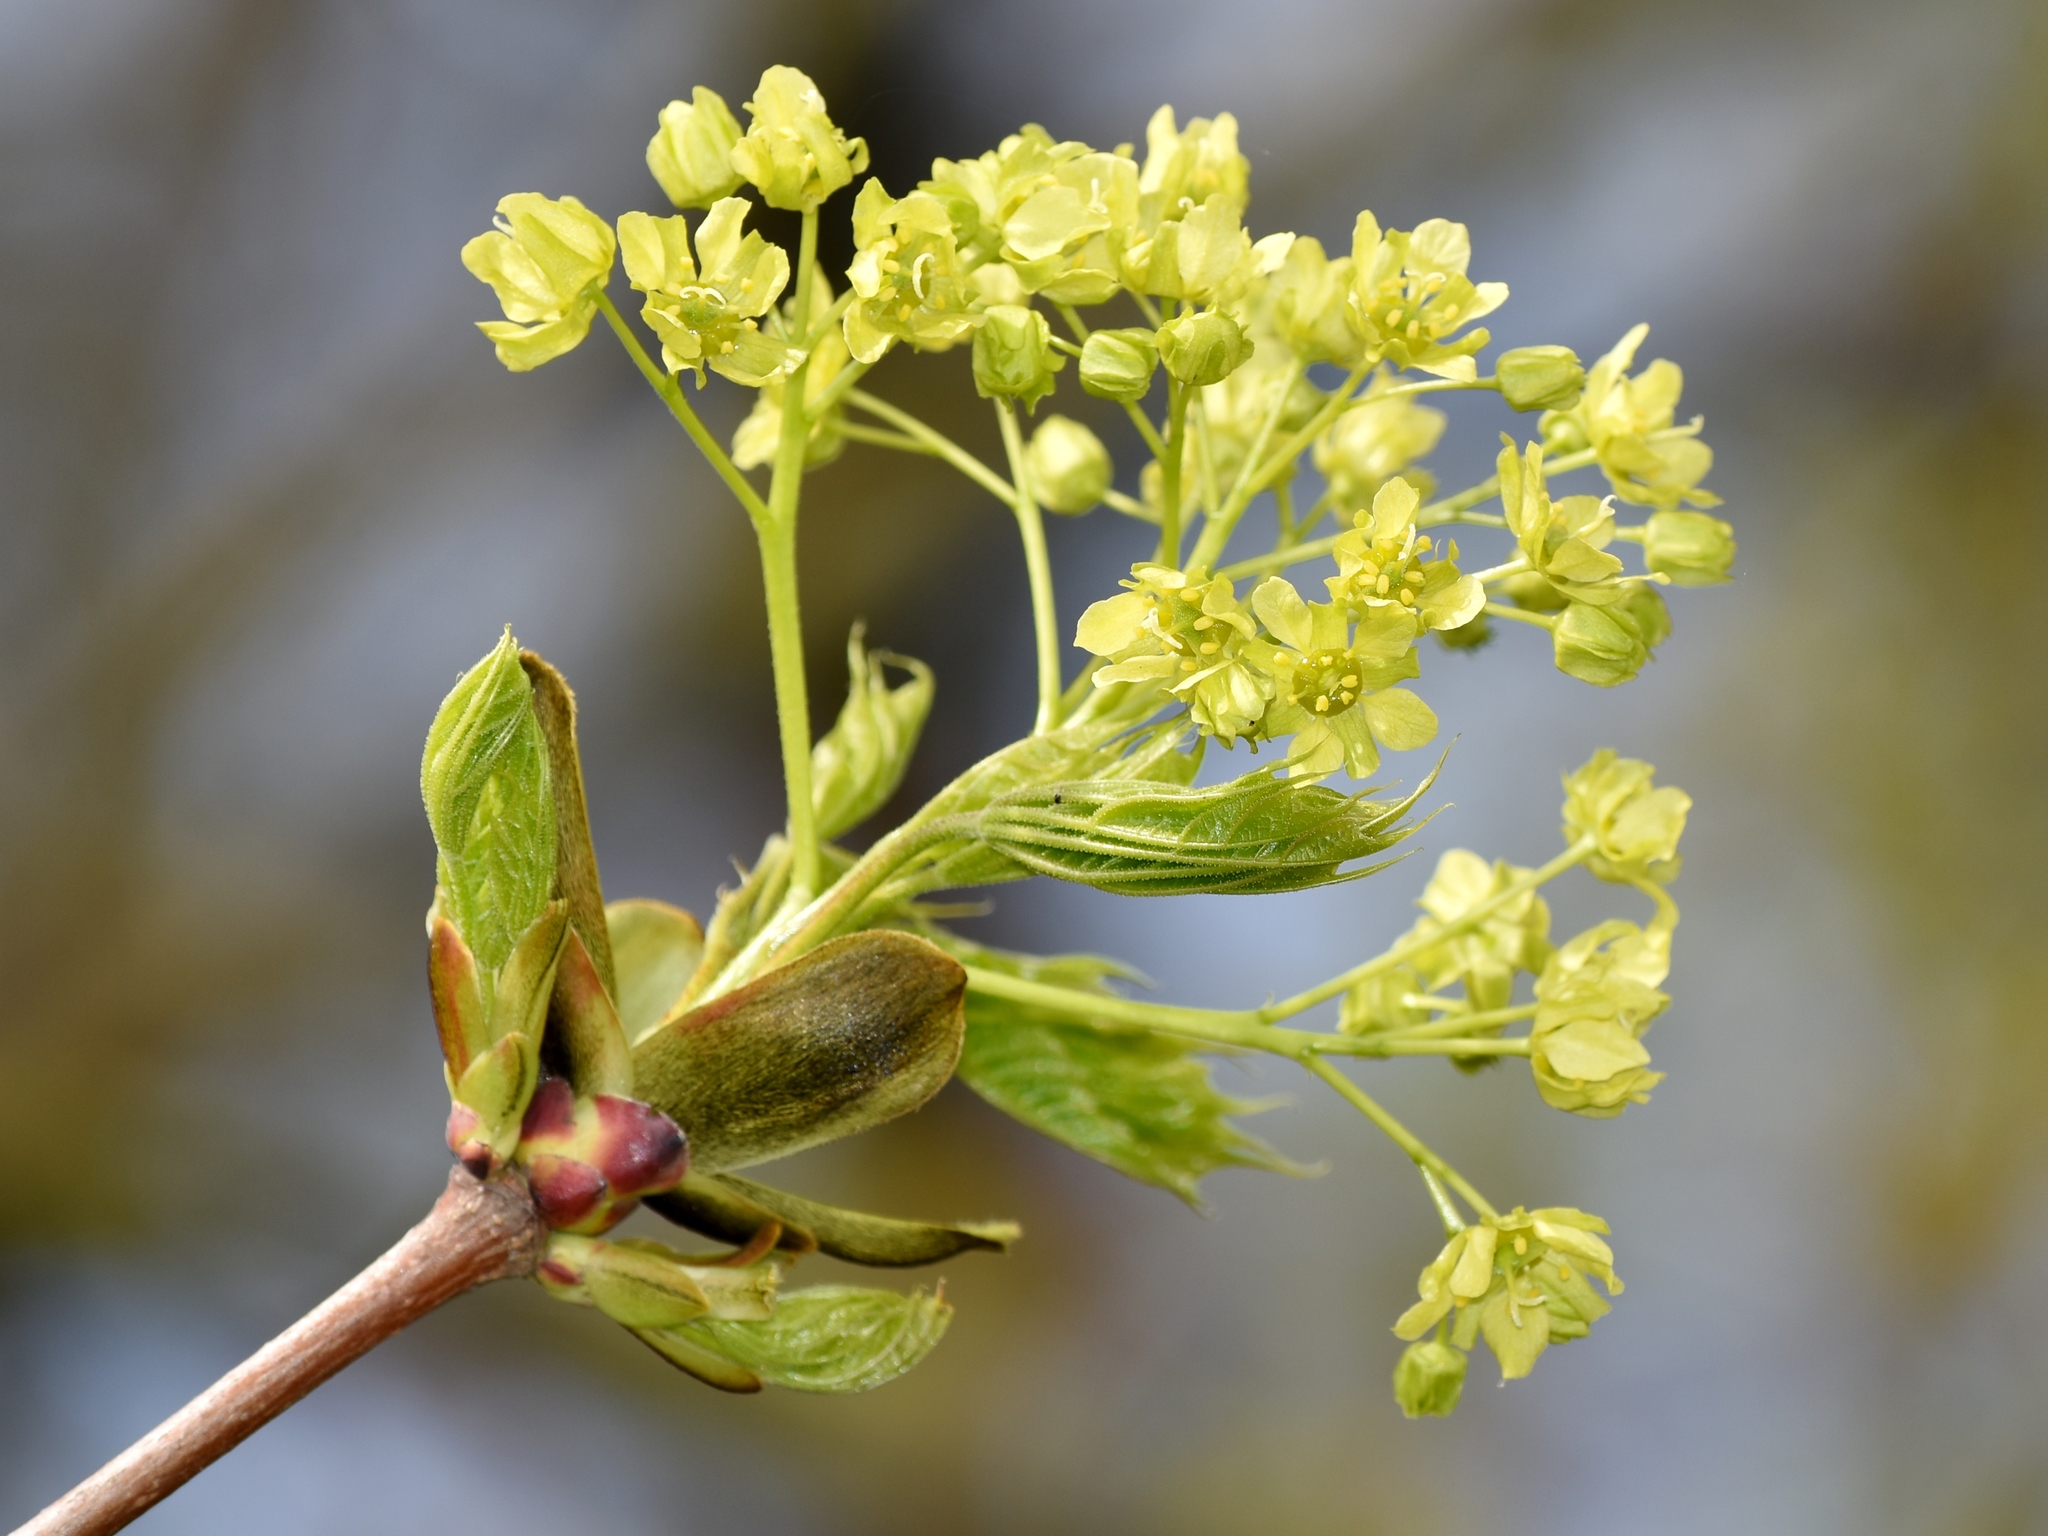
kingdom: Plantae
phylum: Tracheophyta
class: Magnoliopsida
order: Sapindales
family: Sapindaceae
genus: Acer
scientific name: Acer platanoides
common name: Norway maple
